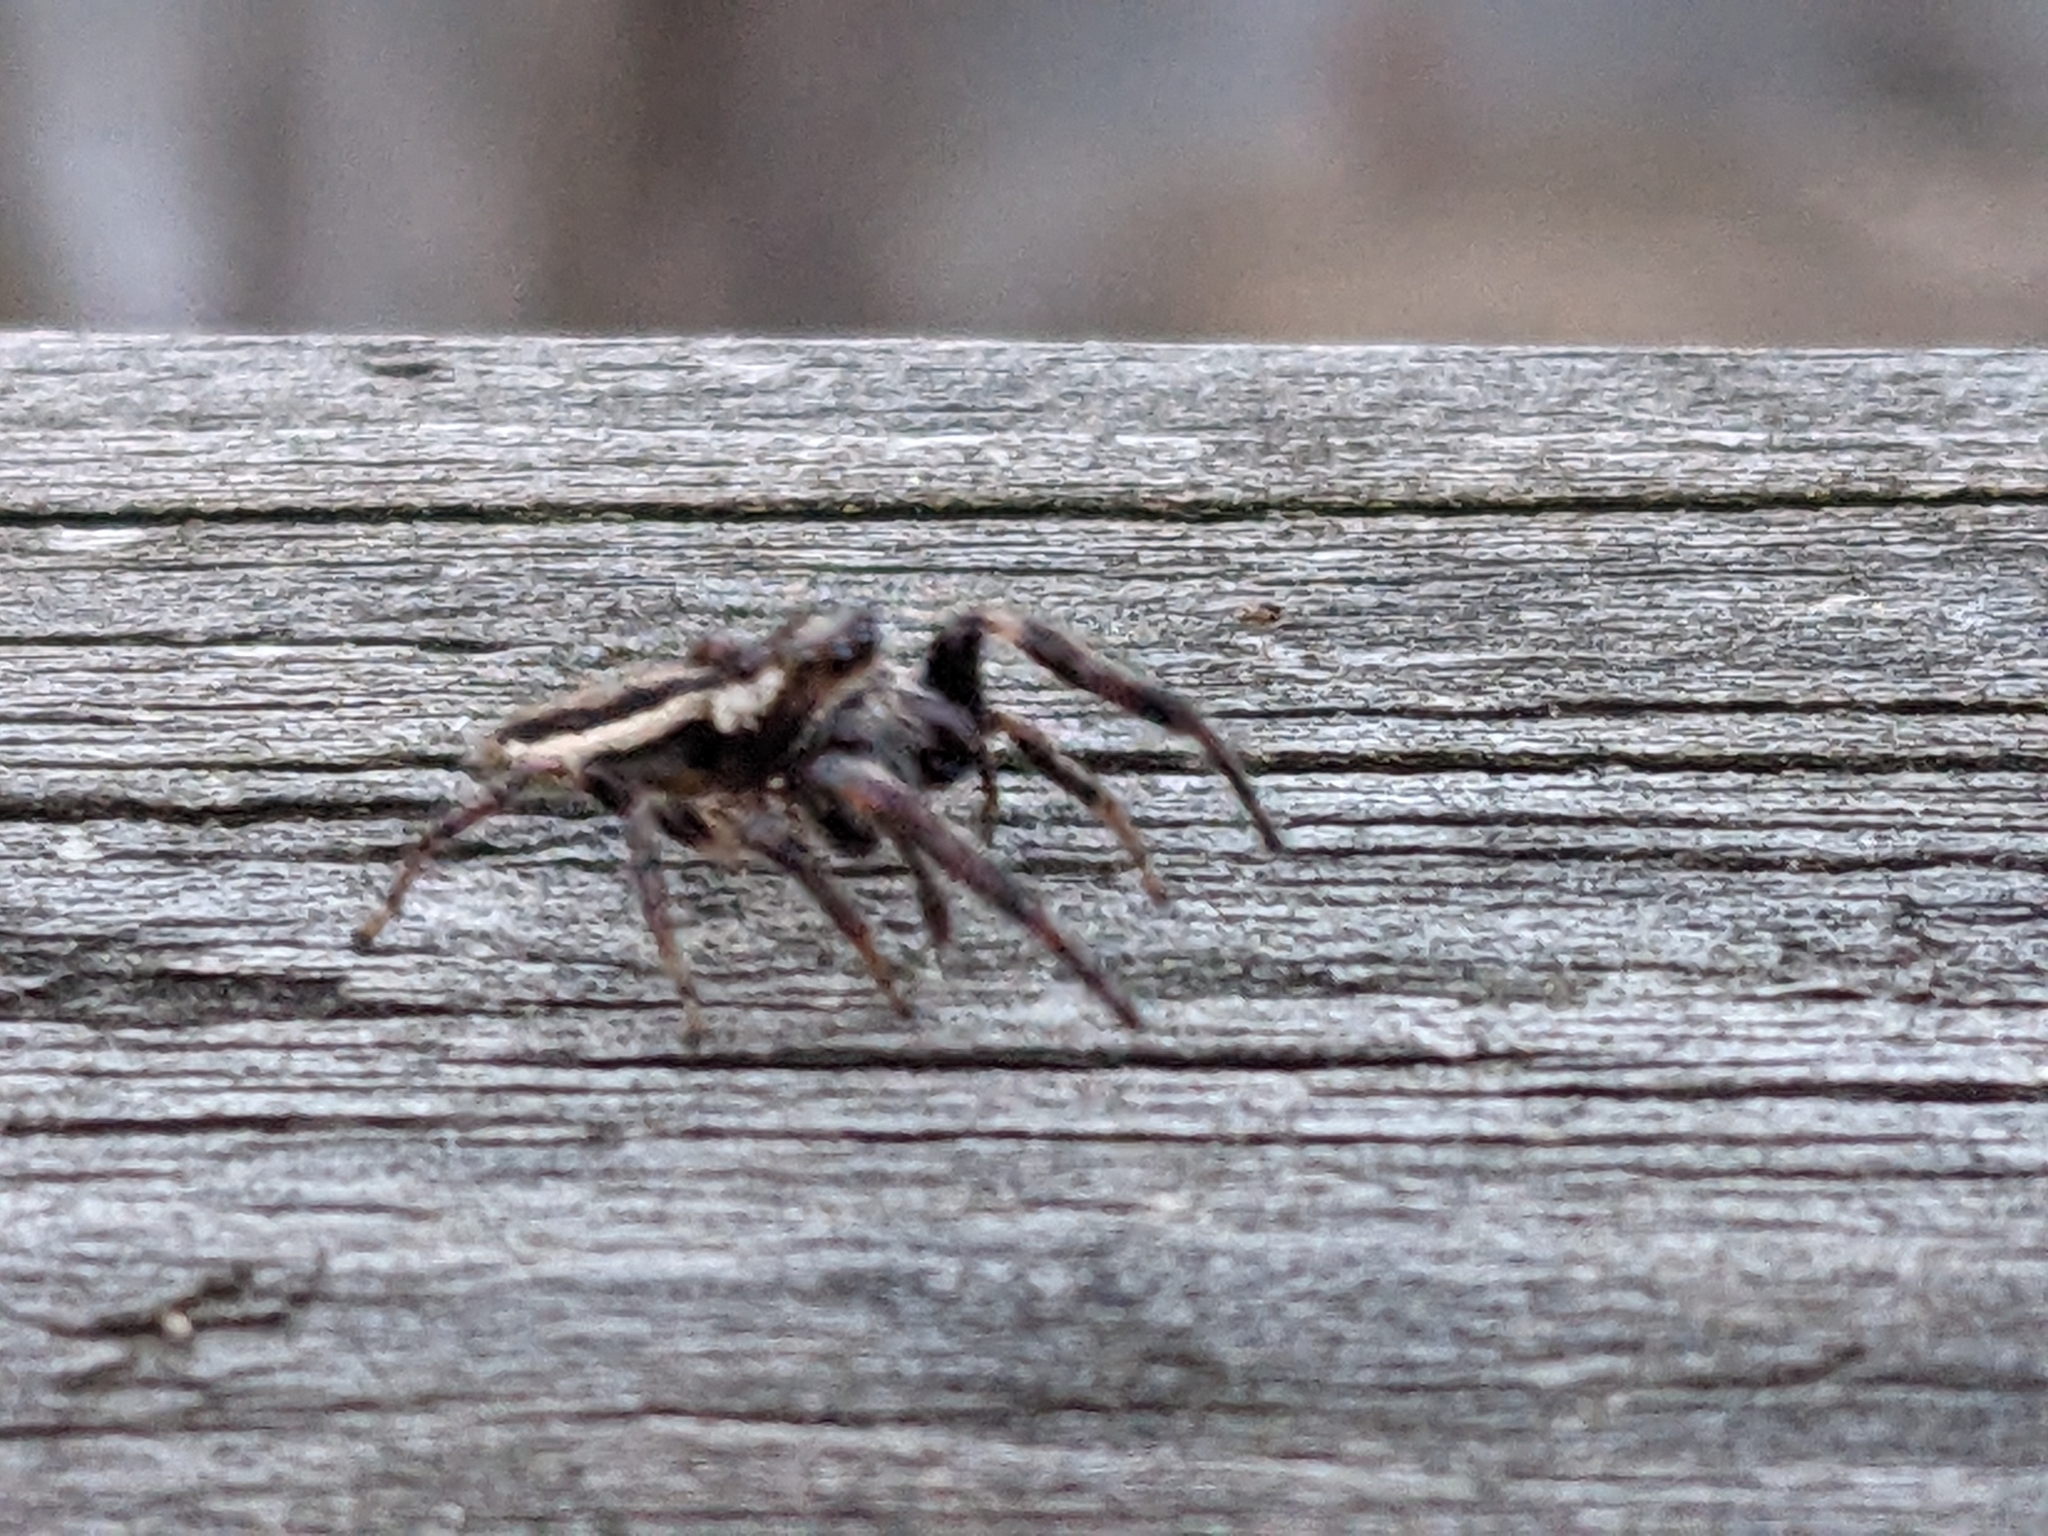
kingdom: Animalia
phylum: Arthropoda
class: Arachnida
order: Araneae
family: Salticidae
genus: Eris
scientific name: Eris militaris
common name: Bronze jumper
